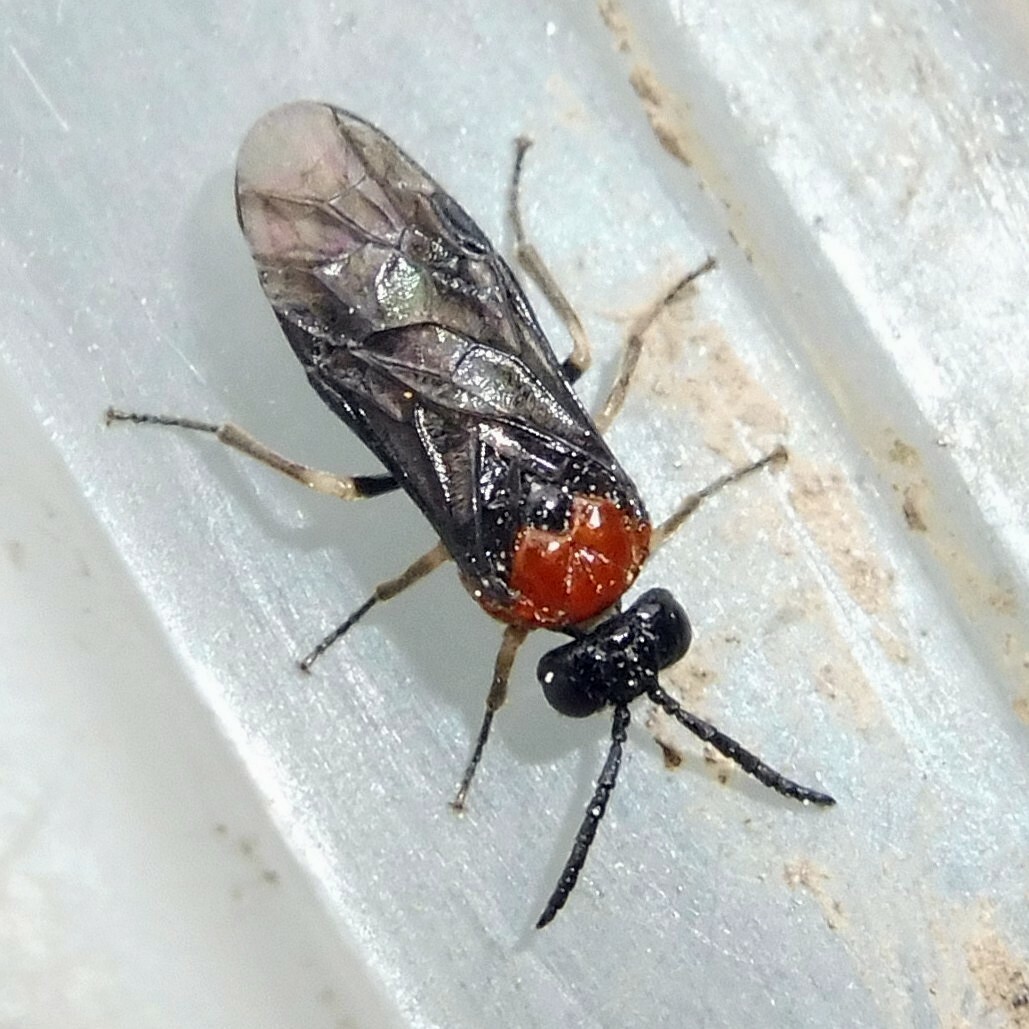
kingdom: Animalia
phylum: Arthropoda
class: Insecta
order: Hymenoptera
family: Tenthredinidae
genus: Eutomostethus
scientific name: Eutomostethus ephippium
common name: Tenthredid wasp
